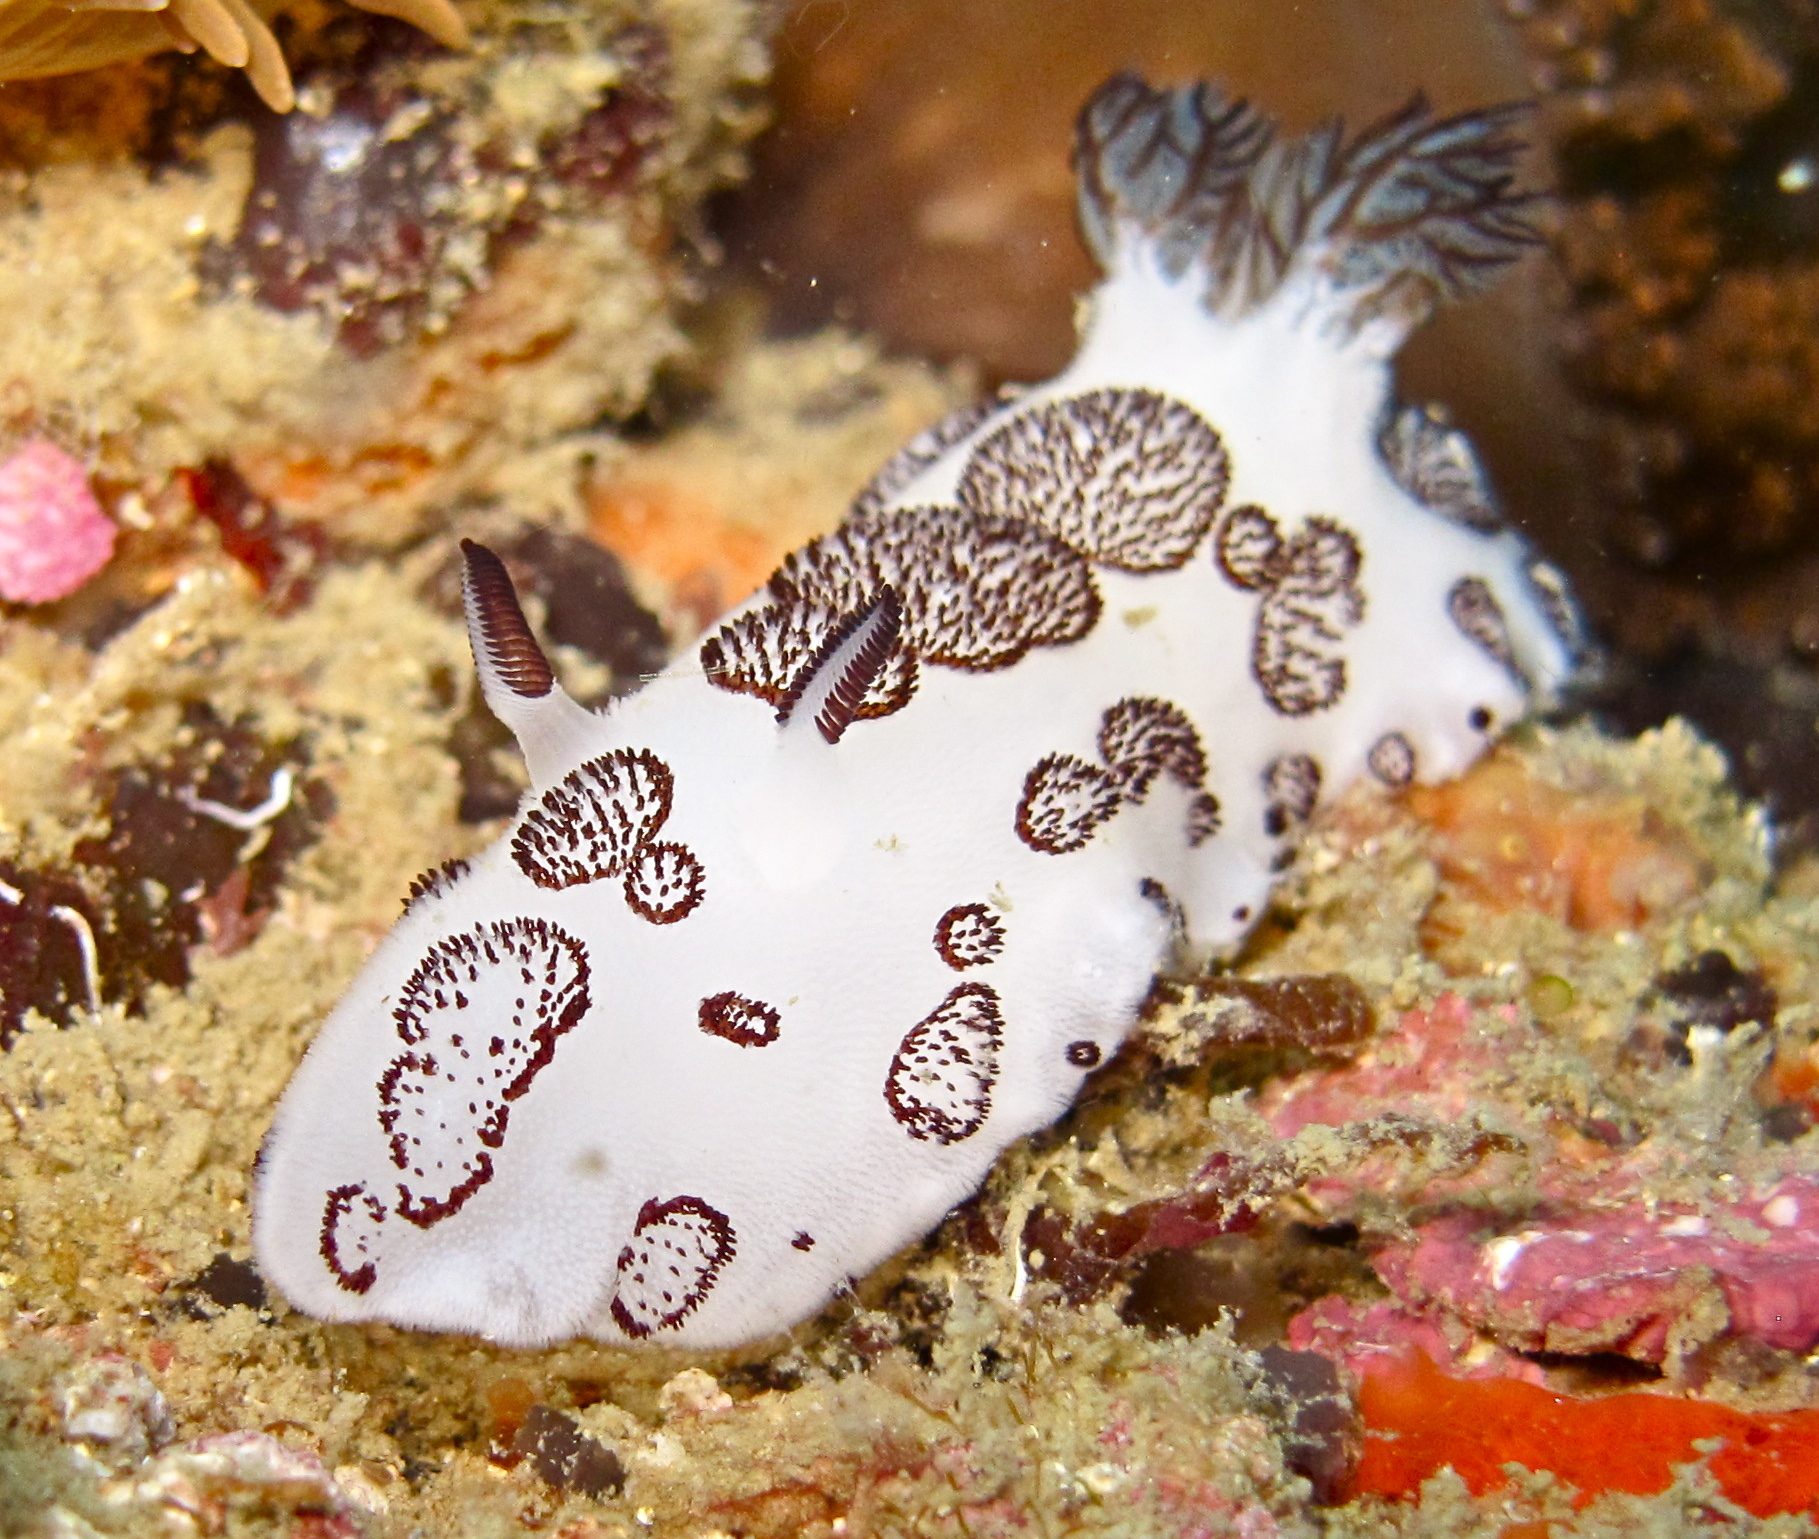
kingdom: Animalia
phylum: Mollusca
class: Gastropoda
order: Nudibranchia
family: Discodorididae
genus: Jorunna
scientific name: Jorunna funebris
